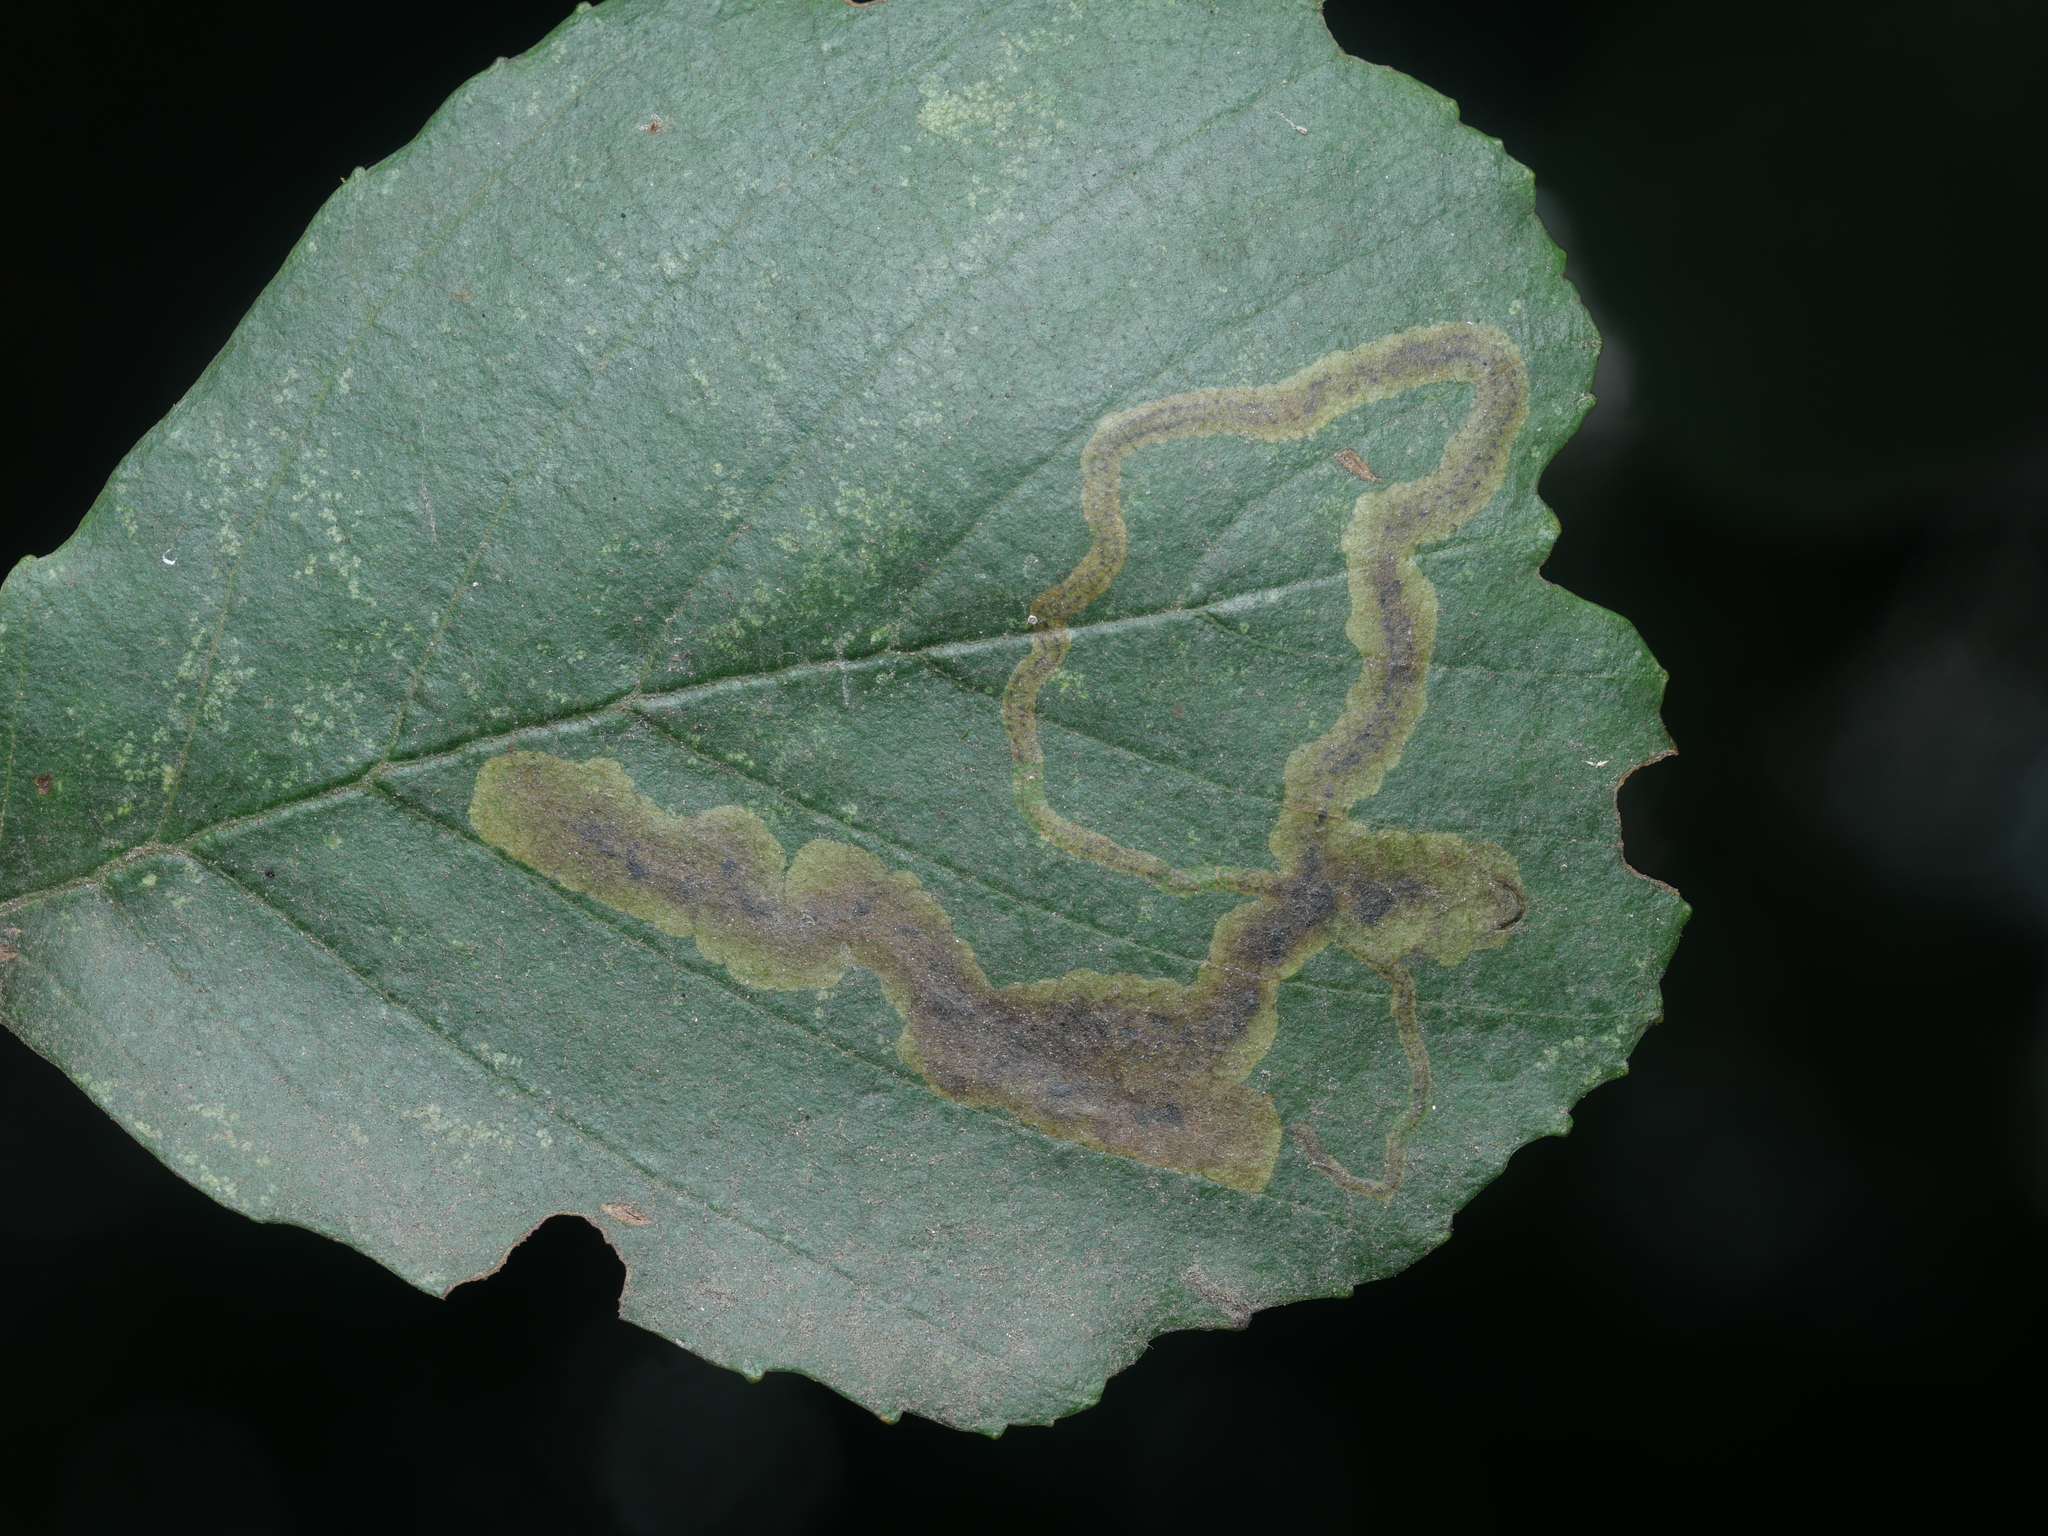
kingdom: Animalia
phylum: Arthropoda
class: Insecta
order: Diptera
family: Agromyzidae
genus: Agromyza
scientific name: Agromyza alnivora
